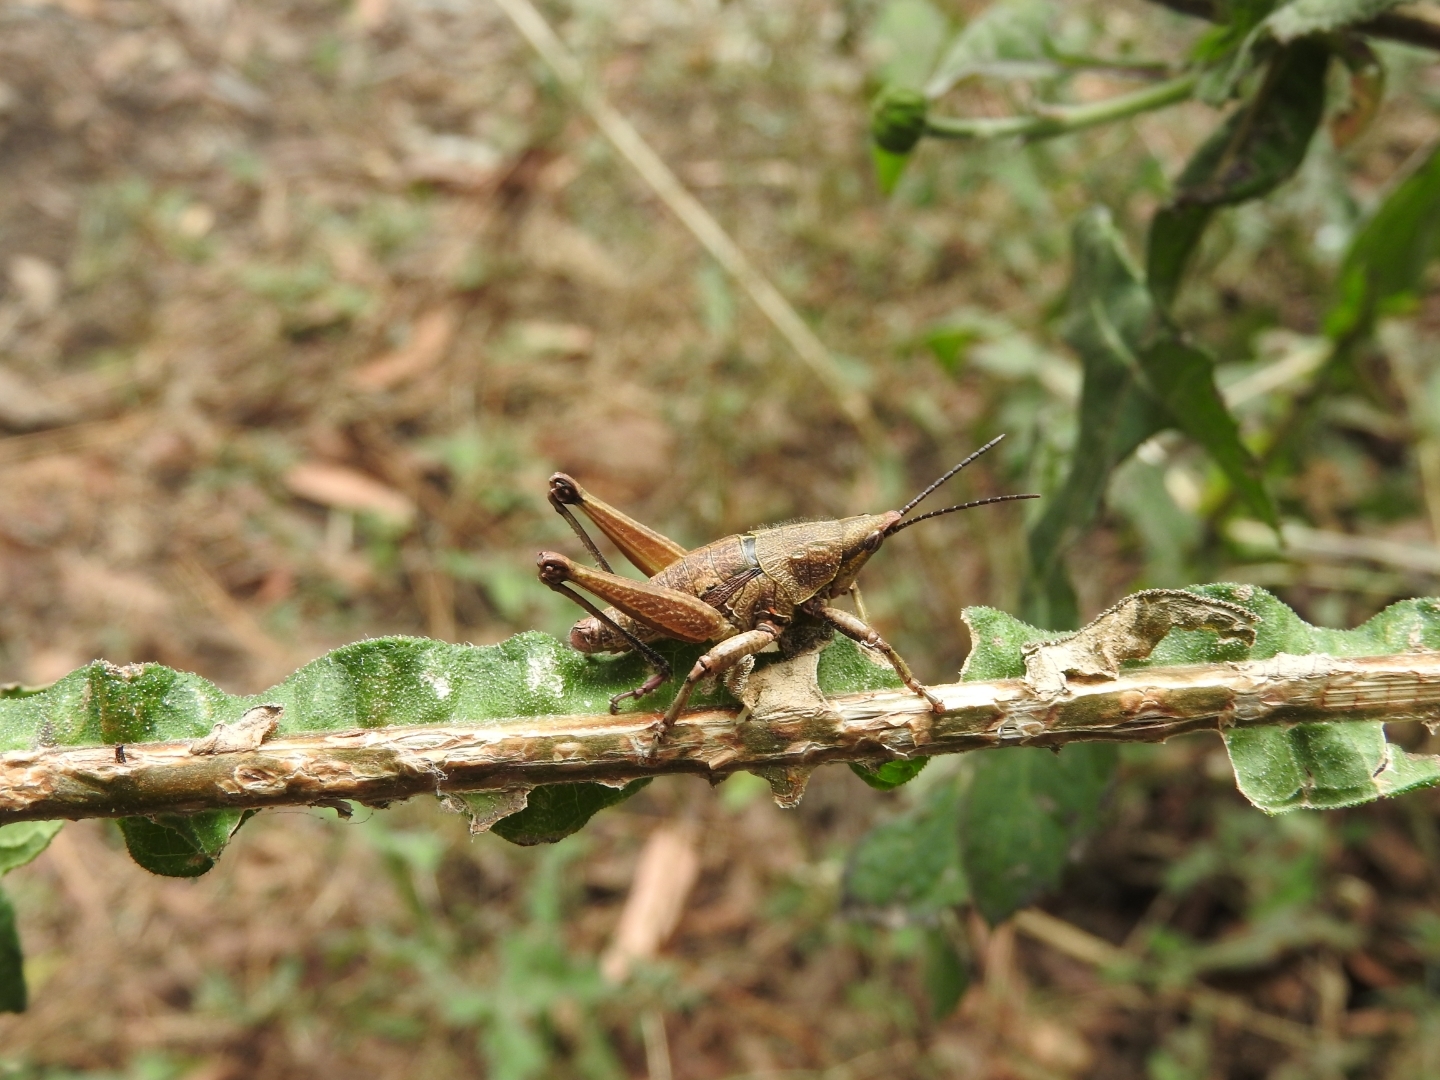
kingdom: Animalia
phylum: Arthropoda
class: Insecta
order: Orthoptera
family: Pyrgomorphidae
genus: Sphenarium
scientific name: Sphenarium purpurascens
